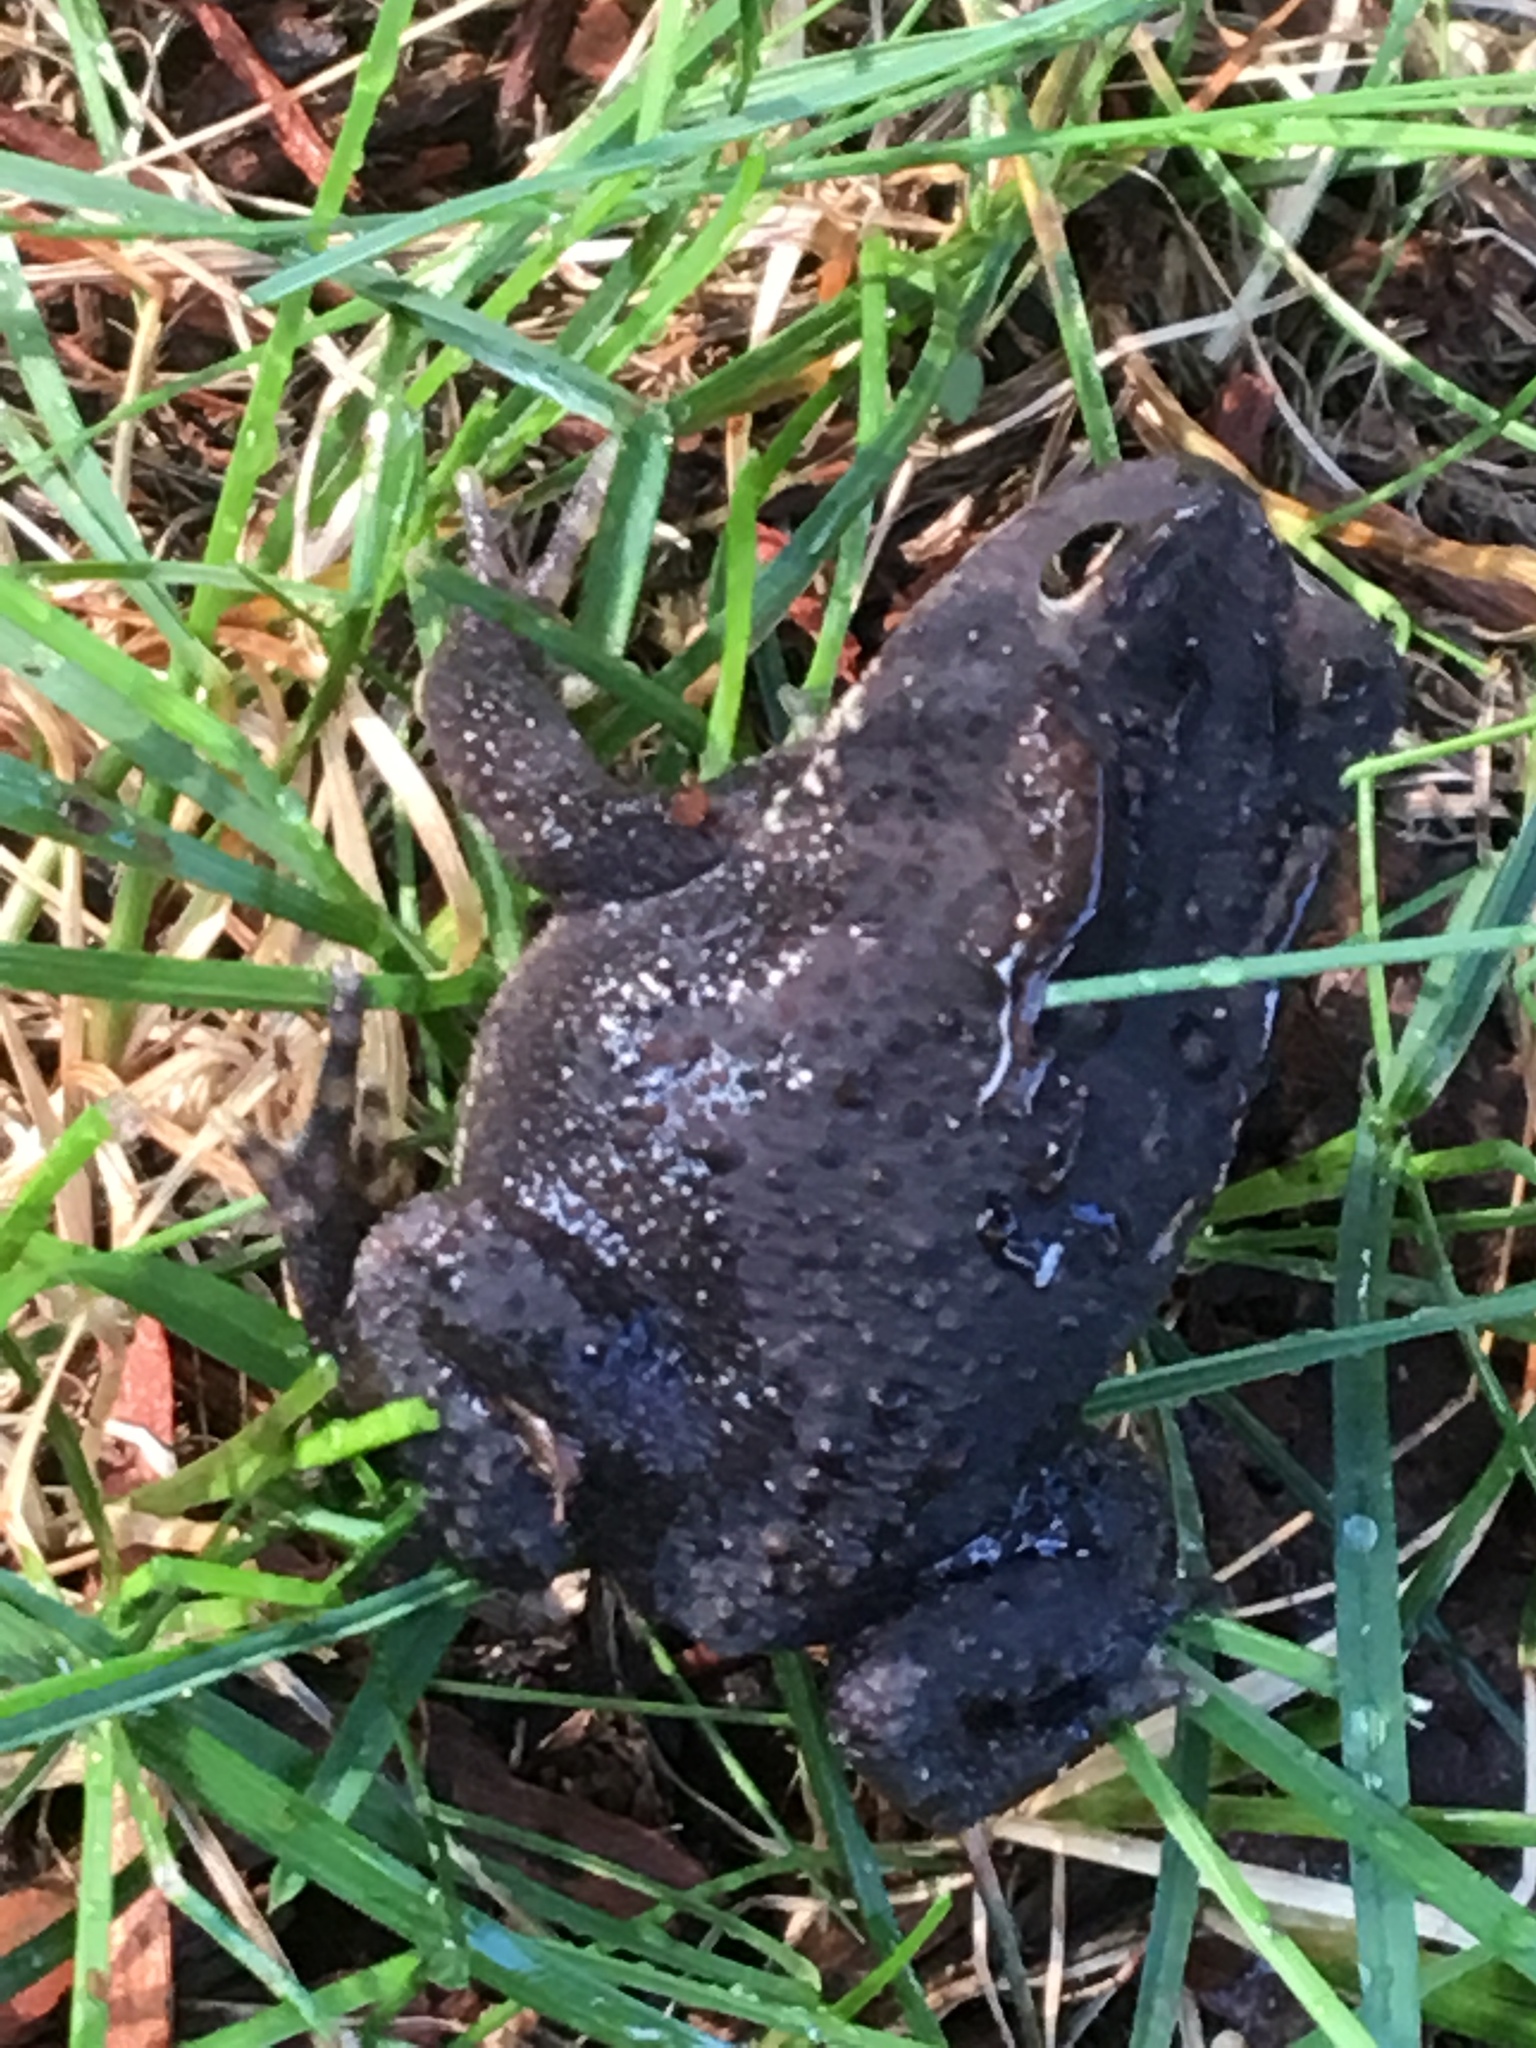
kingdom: Animalia
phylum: Chordata
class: Amphibia
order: Anura
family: Bufonidae
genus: Anaxyrus
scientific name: Anaxyrus americanus
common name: American toad
